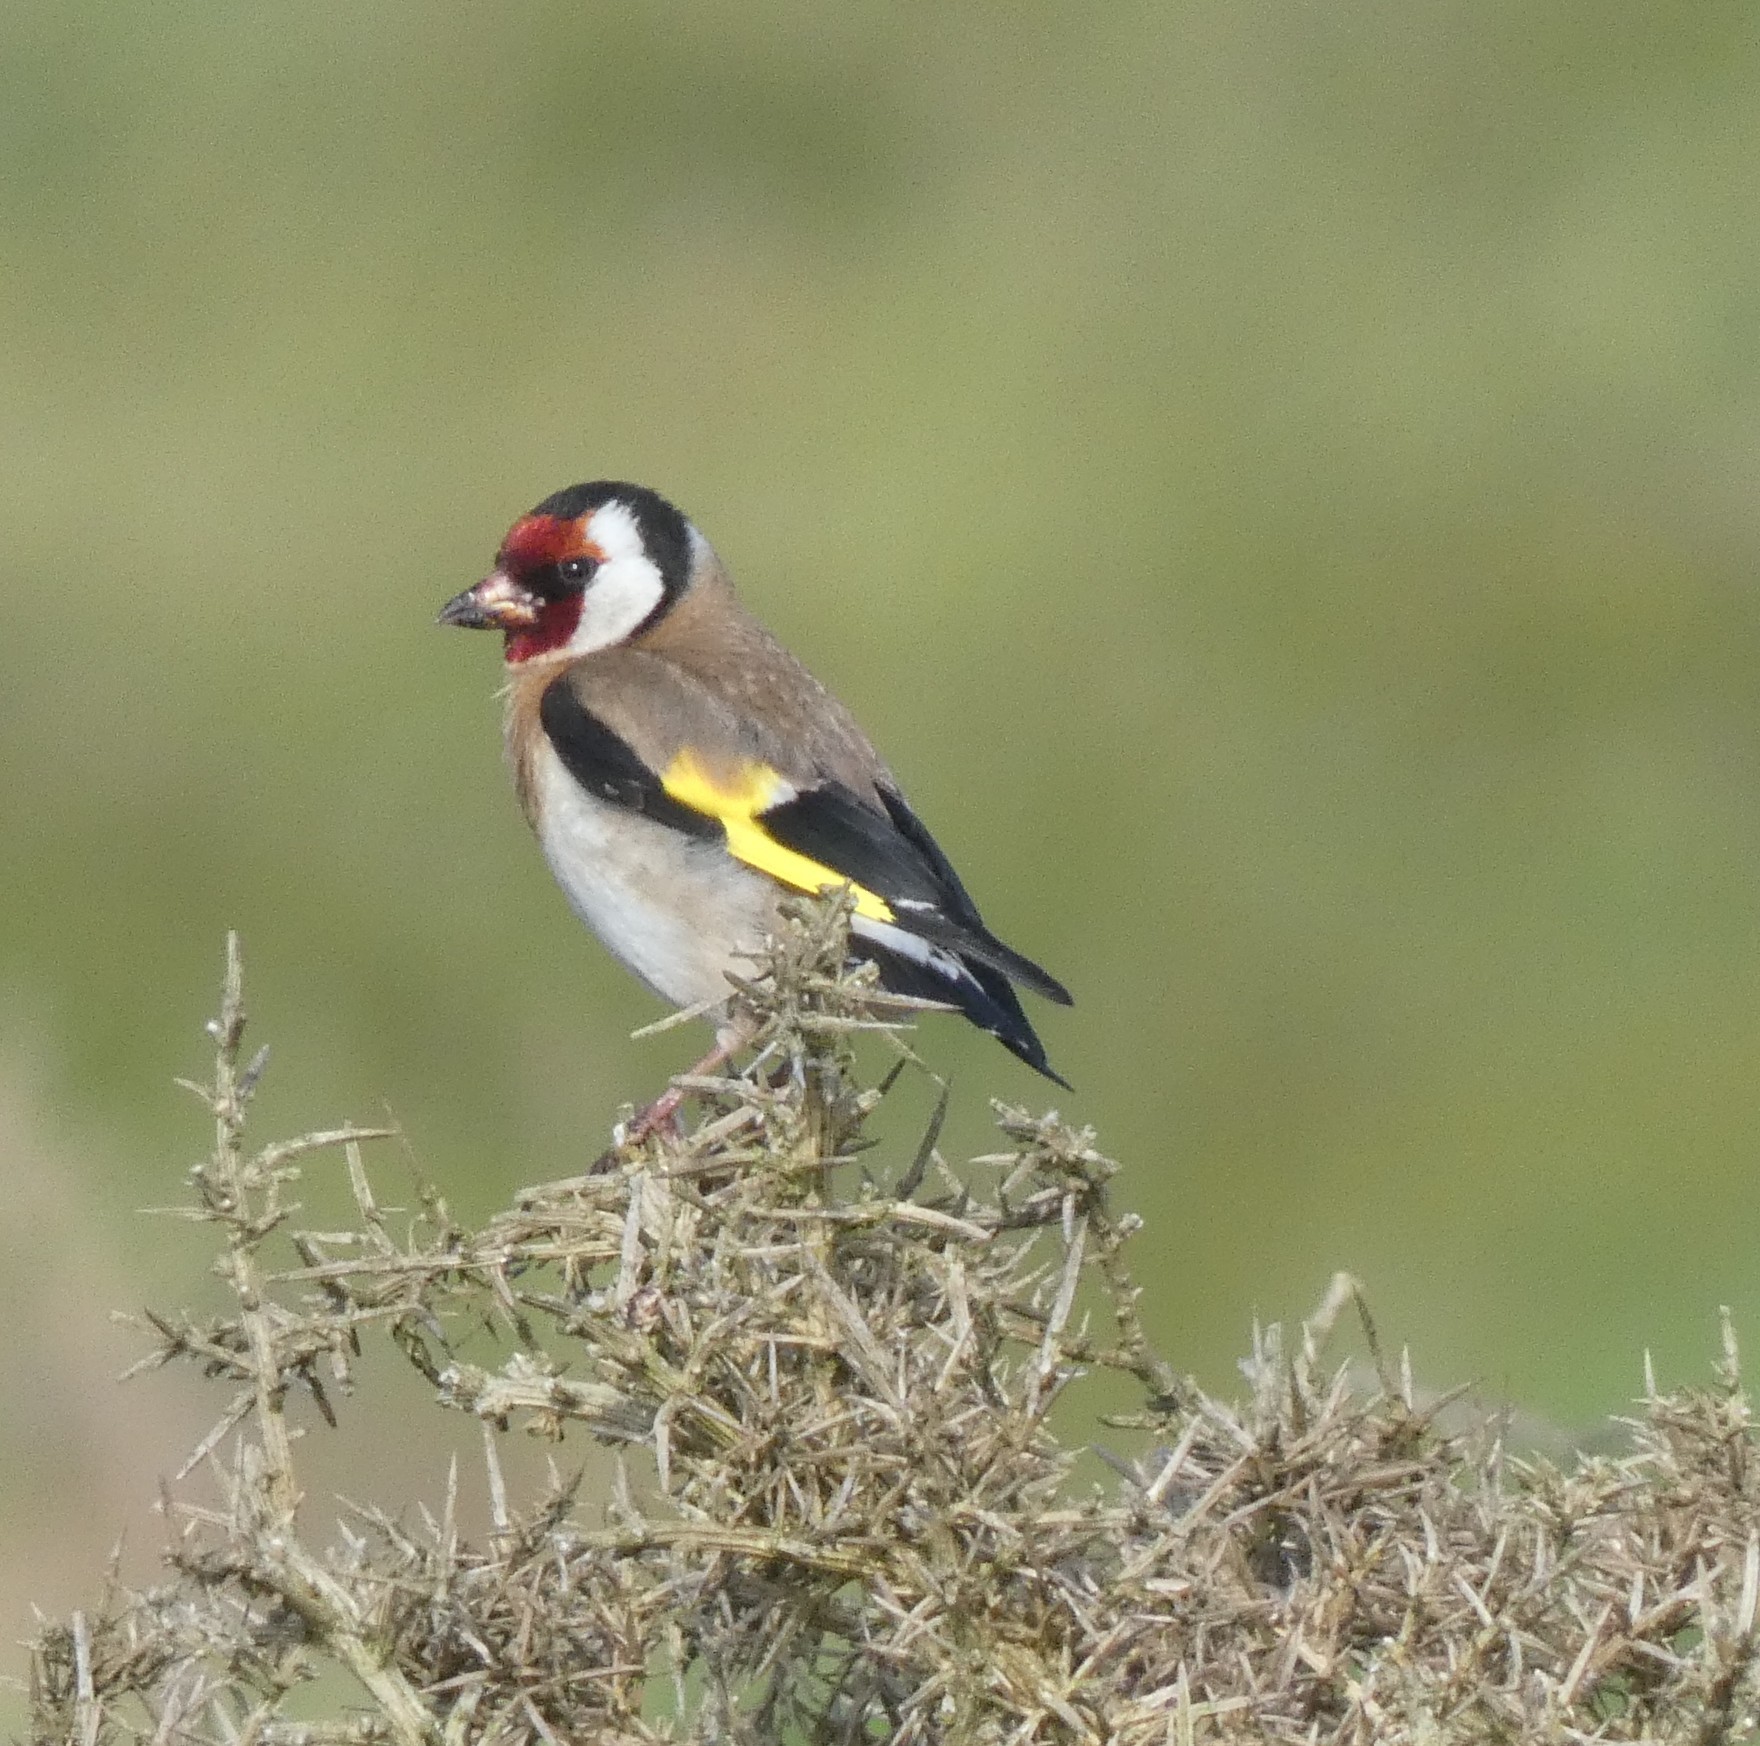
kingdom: Animalia
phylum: Chordata
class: Aves
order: Passeriformes
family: Fringillidae
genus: Carduelis
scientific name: Carduelis carduelis
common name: European goldfinch
